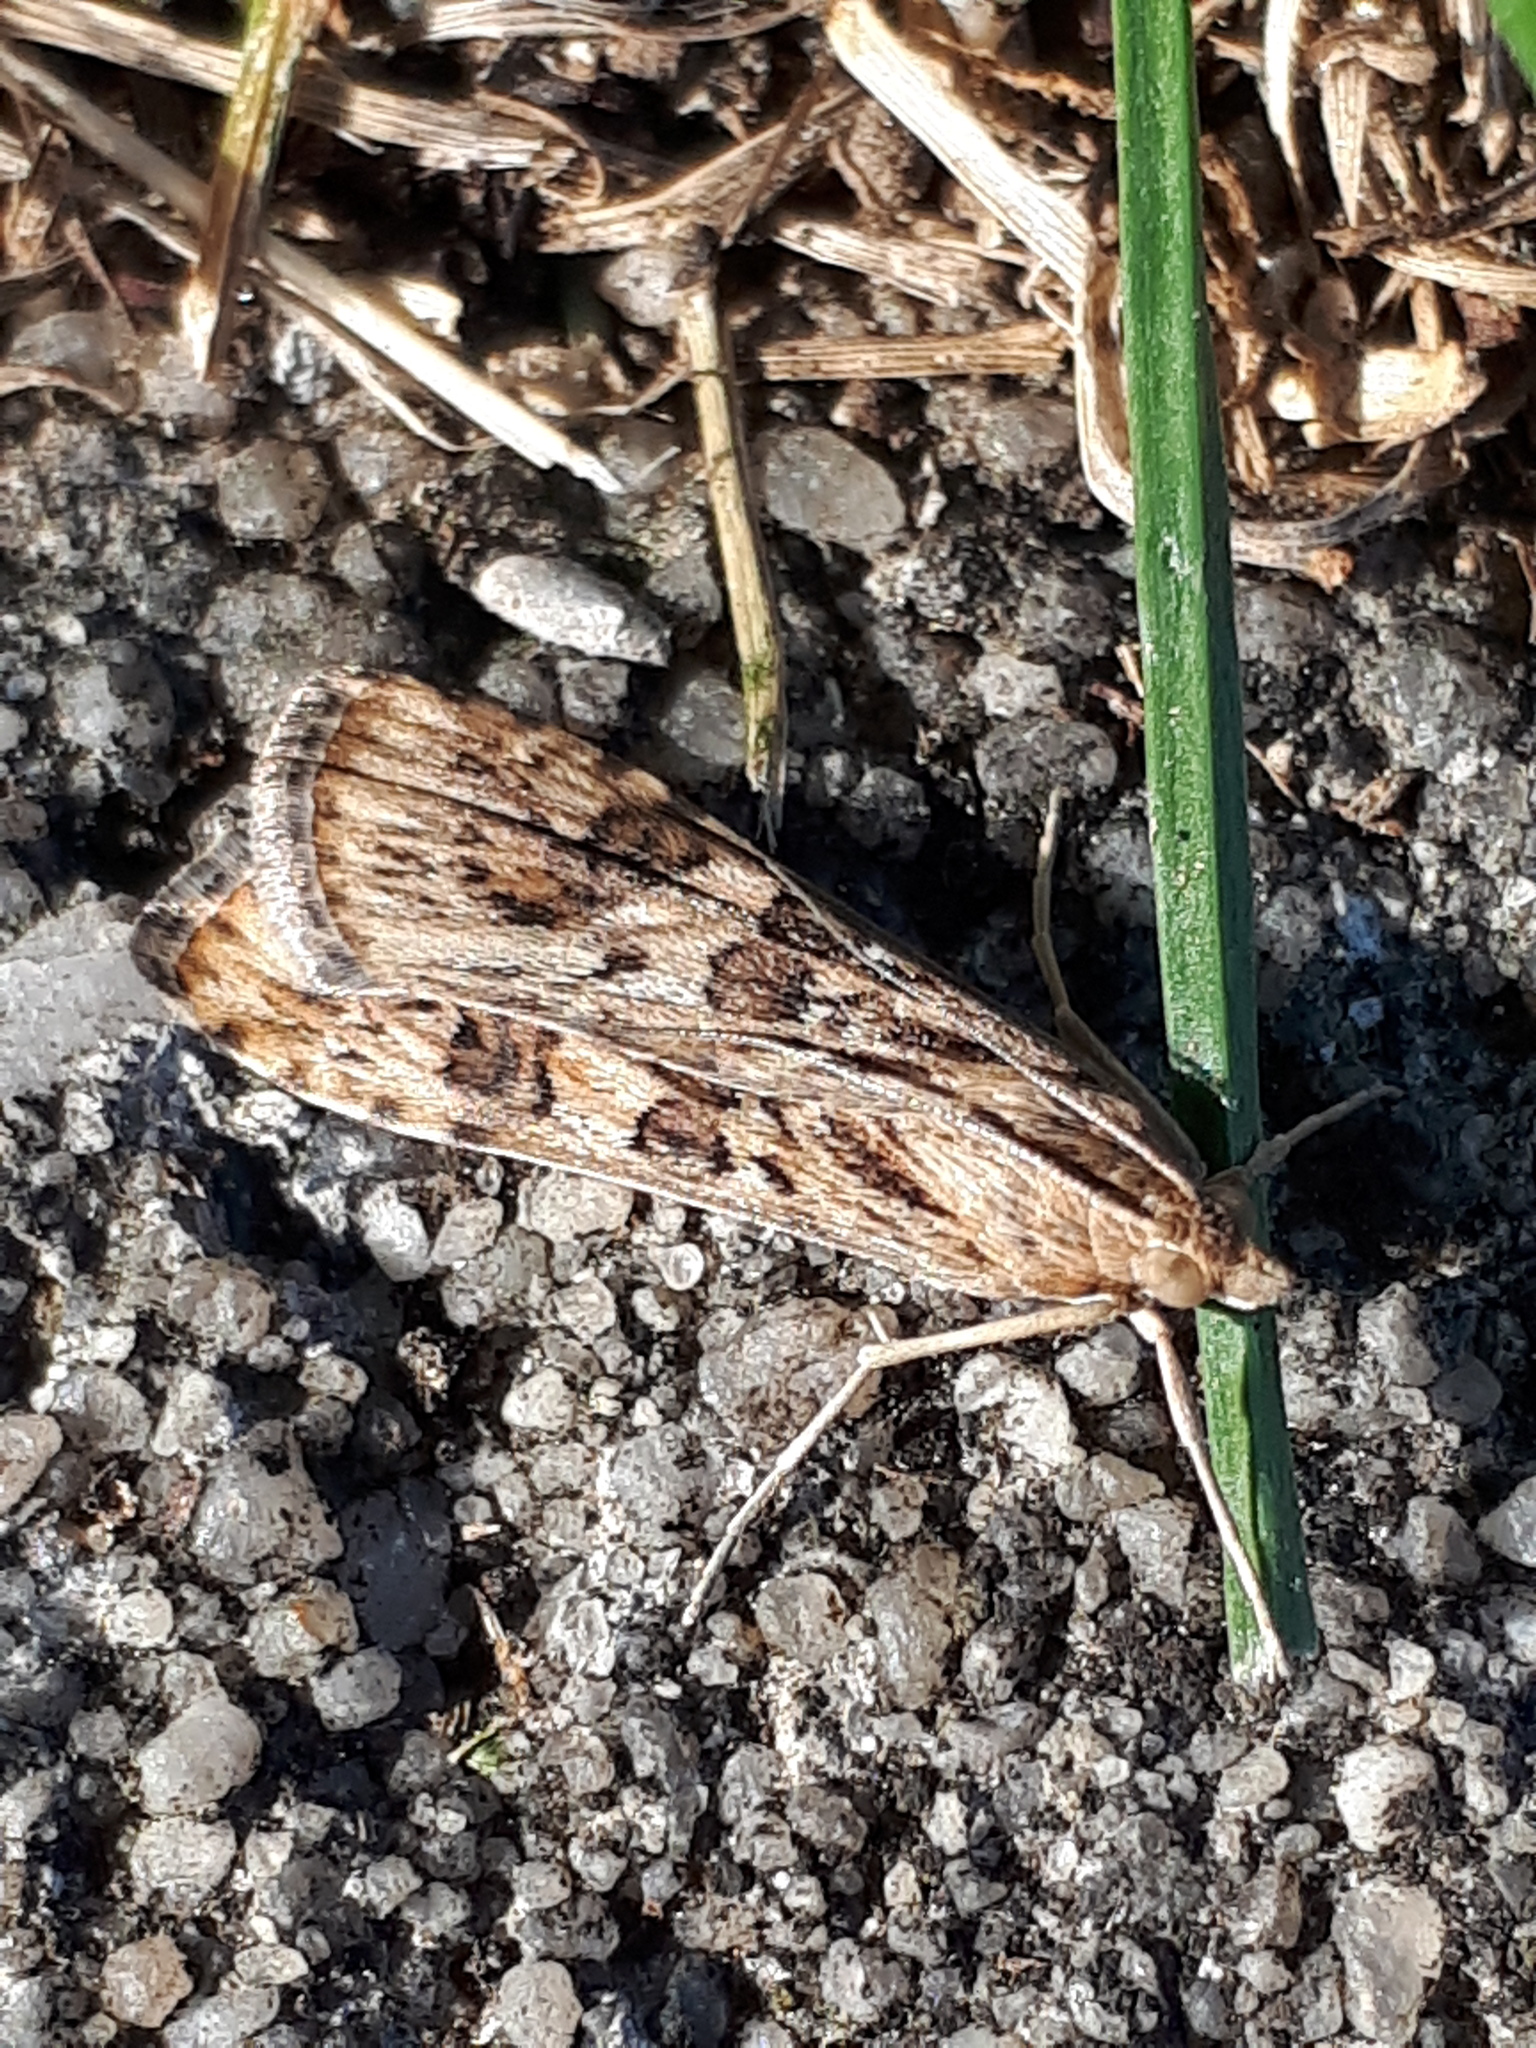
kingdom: Animalia
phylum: Arthropoda
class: Insecta
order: Lepidoptera
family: Crambidae
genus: Nomophila
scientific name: Nomophila noctuella
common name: Rush veneer
